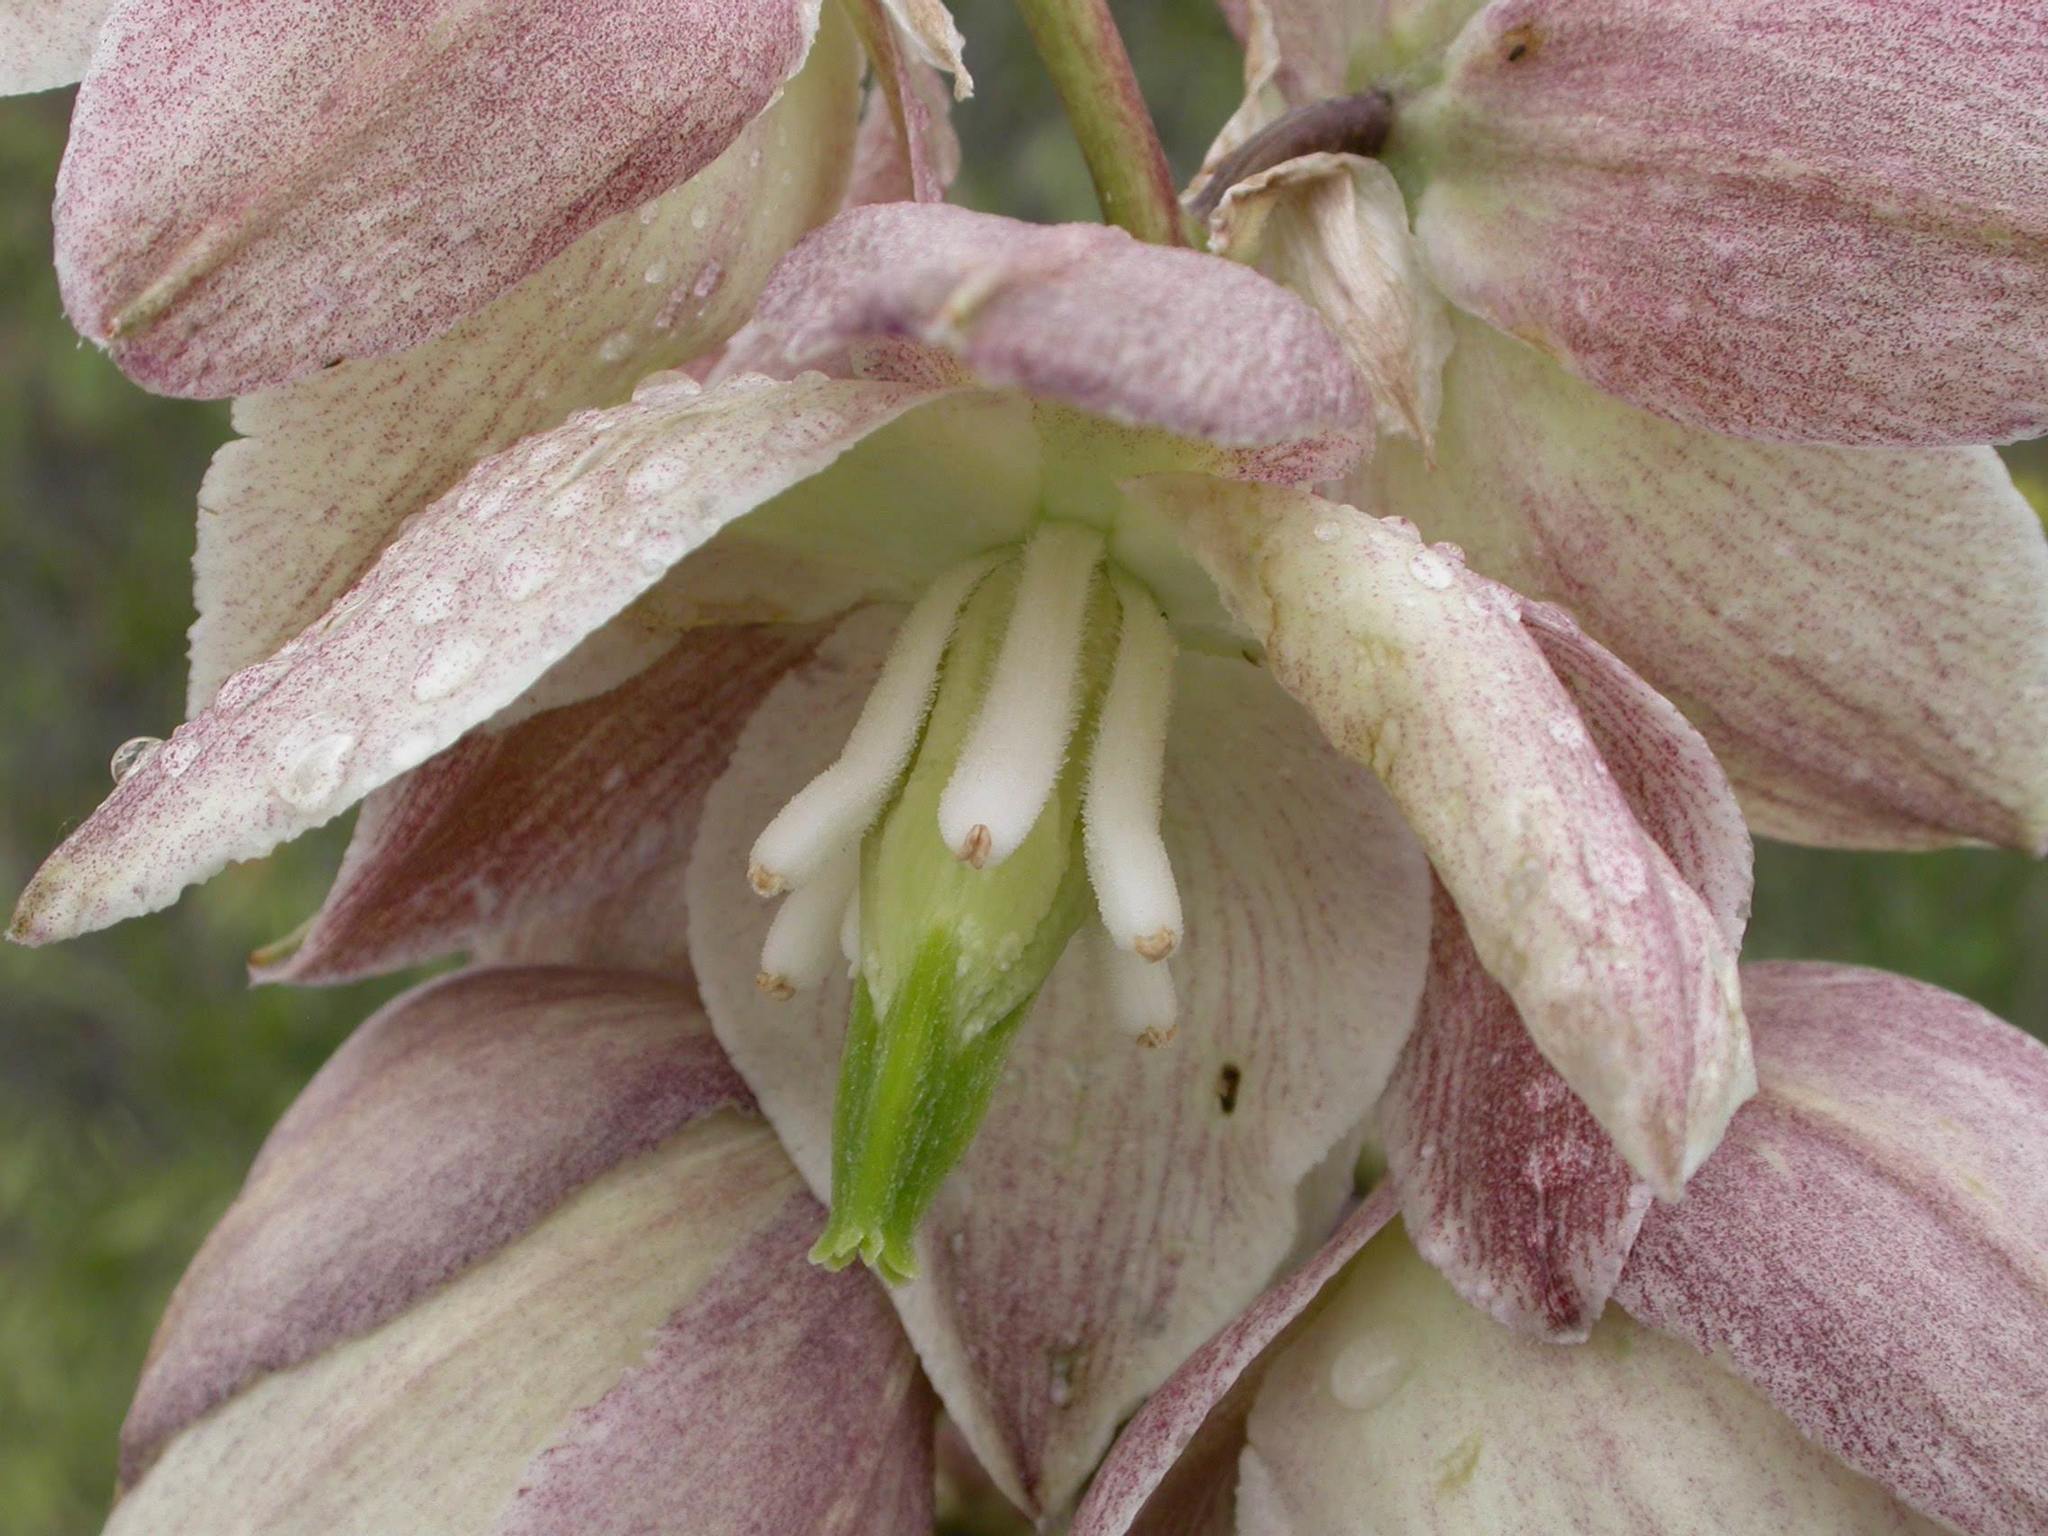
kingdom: Plantae
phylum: Tracheophyta
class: Liliopsida
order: Asparagales
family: Asparagaceae
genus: Yucca
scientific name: Yucca glauca
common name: Great plains yucca
